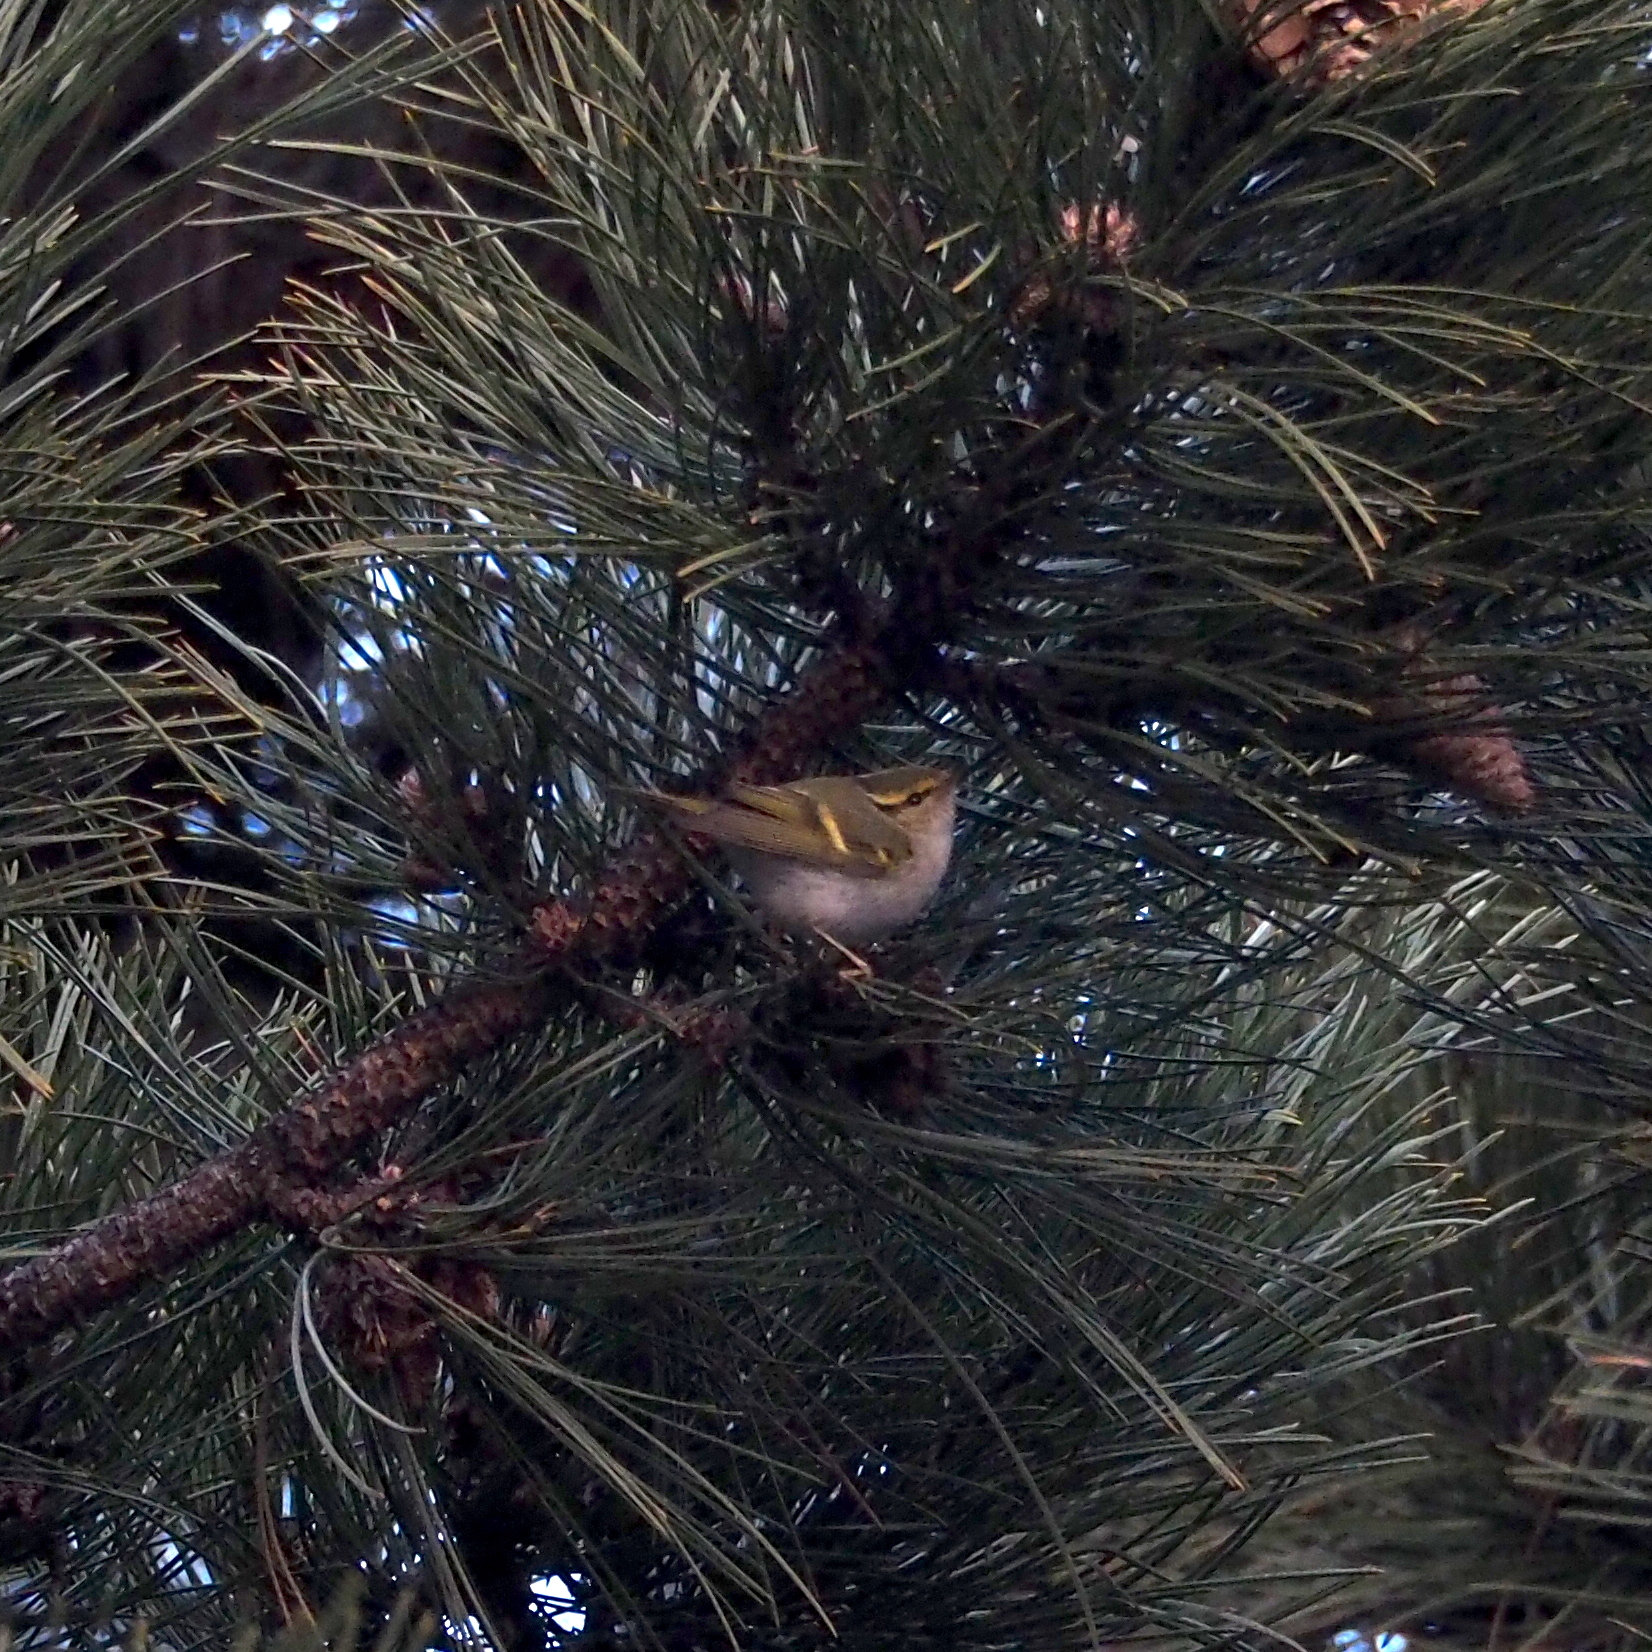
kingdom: Animalia
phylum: Chordata
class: Aves
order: Passeriformes
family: Phylloscopidae
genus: Phylloscopus
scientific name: Phylloscopus proregulus
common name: Pallas's leaf warbler
